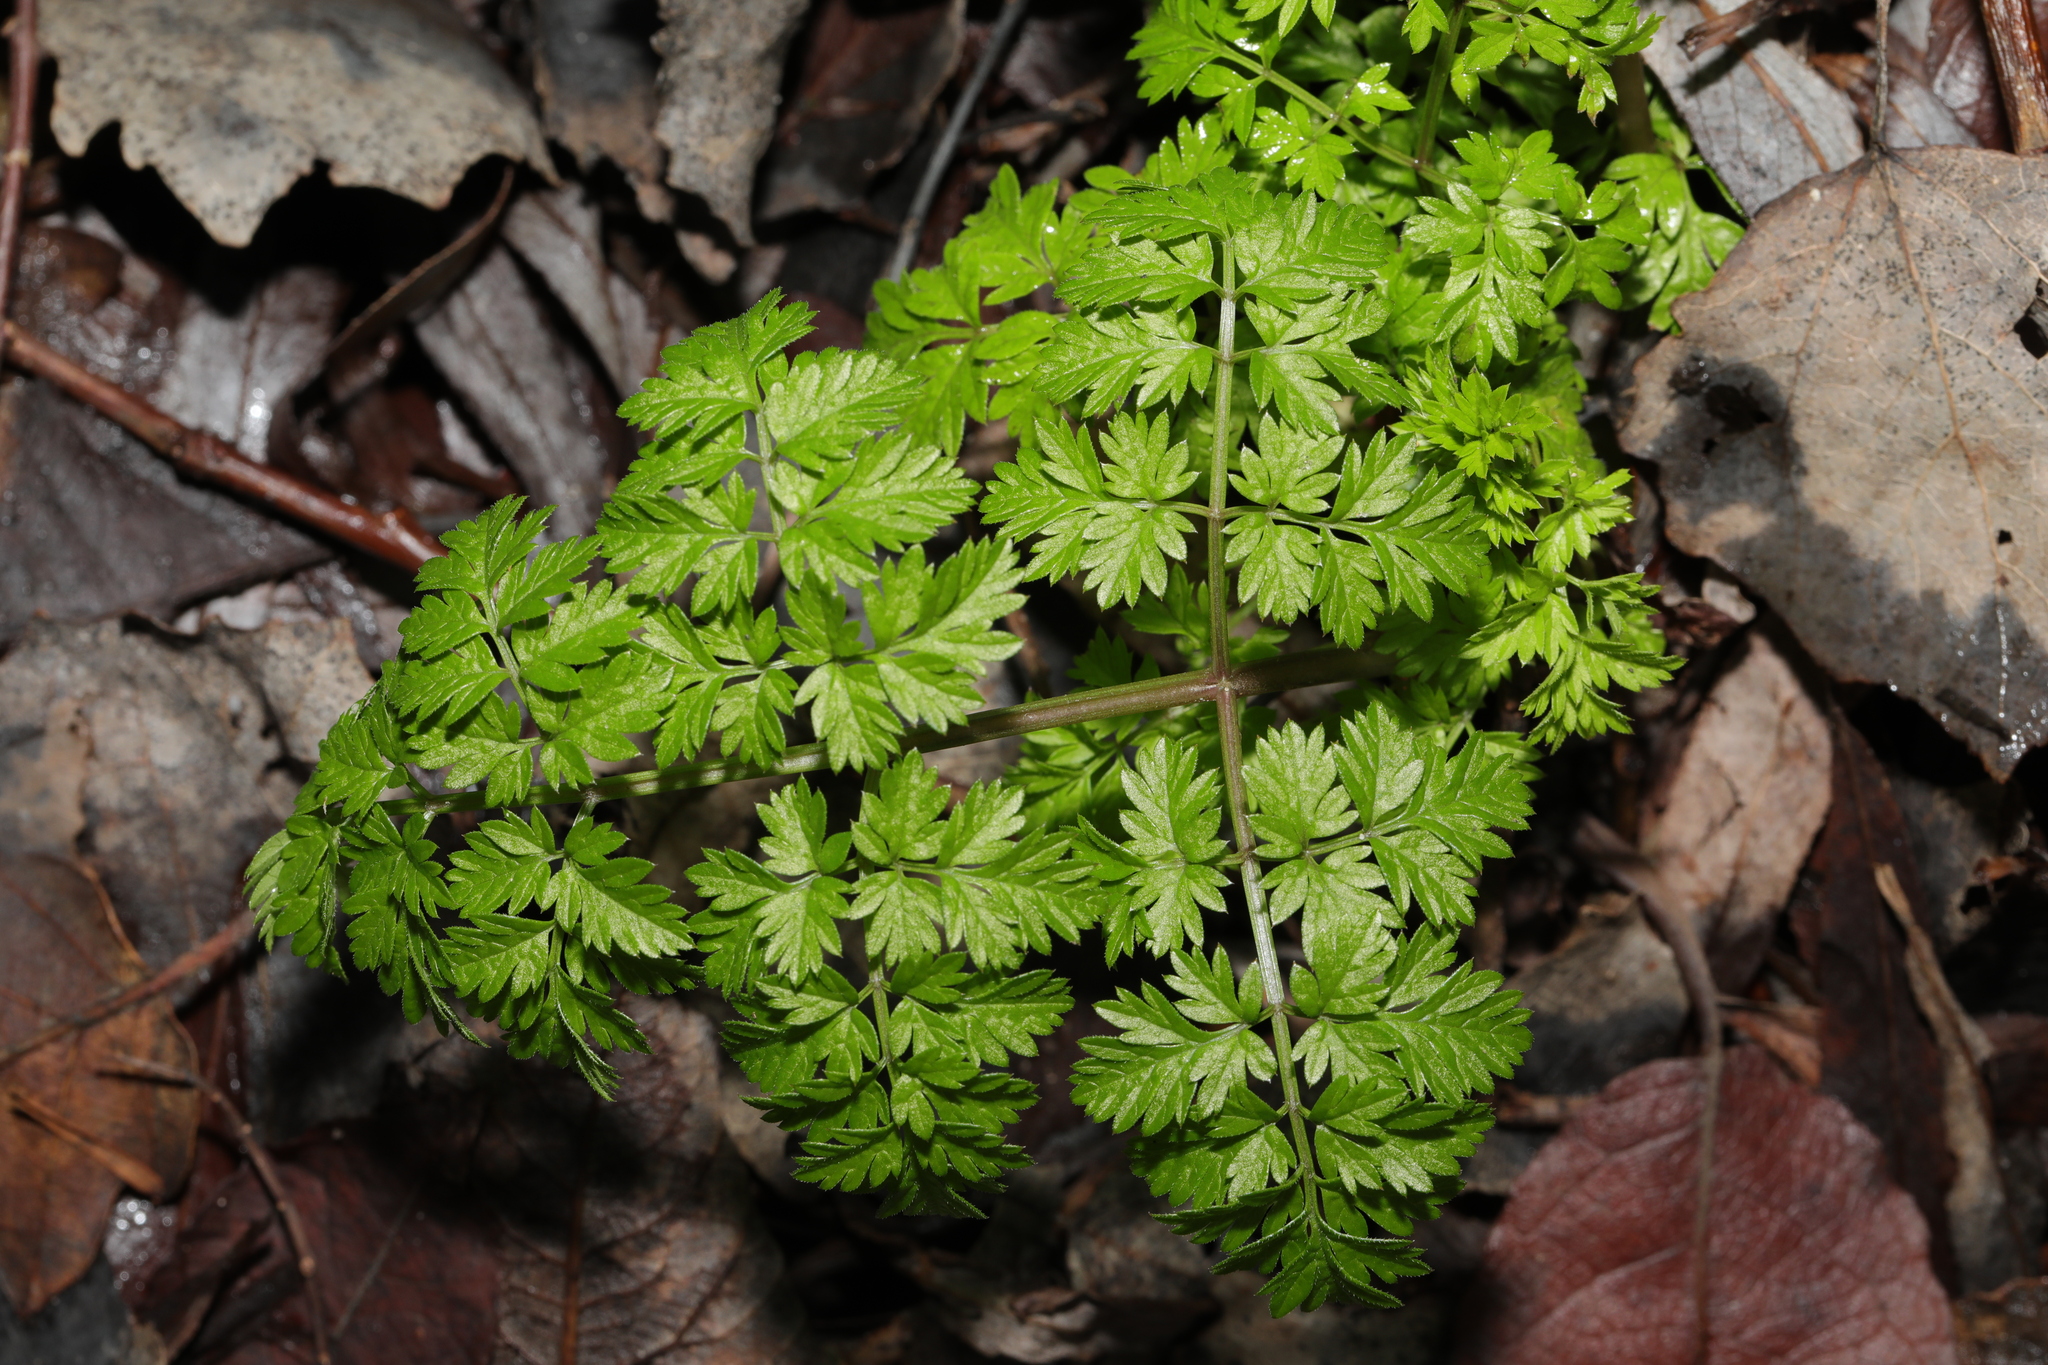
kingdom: Plantae
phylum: Tracheophyta
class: Magnoliopsida
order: Apiales
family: Apiaceae
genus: Anthriscus
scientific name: Anthriscus sylvestris
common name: Cow parsley
